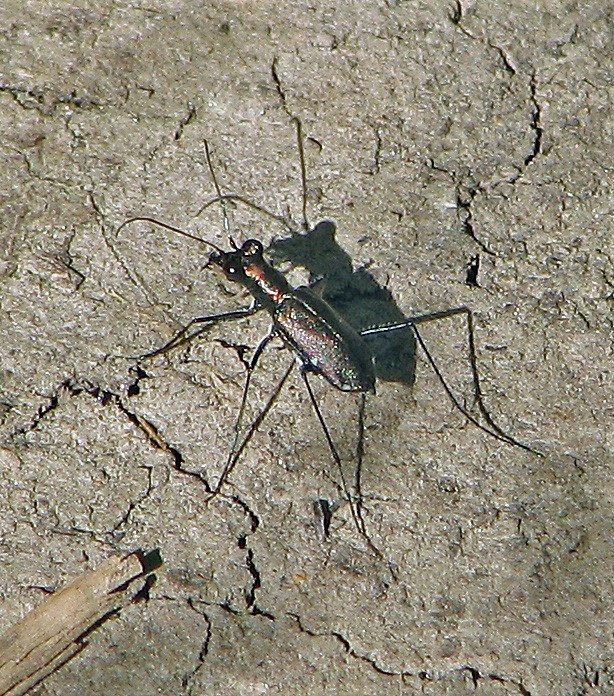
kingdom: Animalia
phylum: Arthropoda
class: Insecta
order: Coleoptera
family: Carabidae
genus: Odontocheila
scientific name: Odontocheila chrysis
